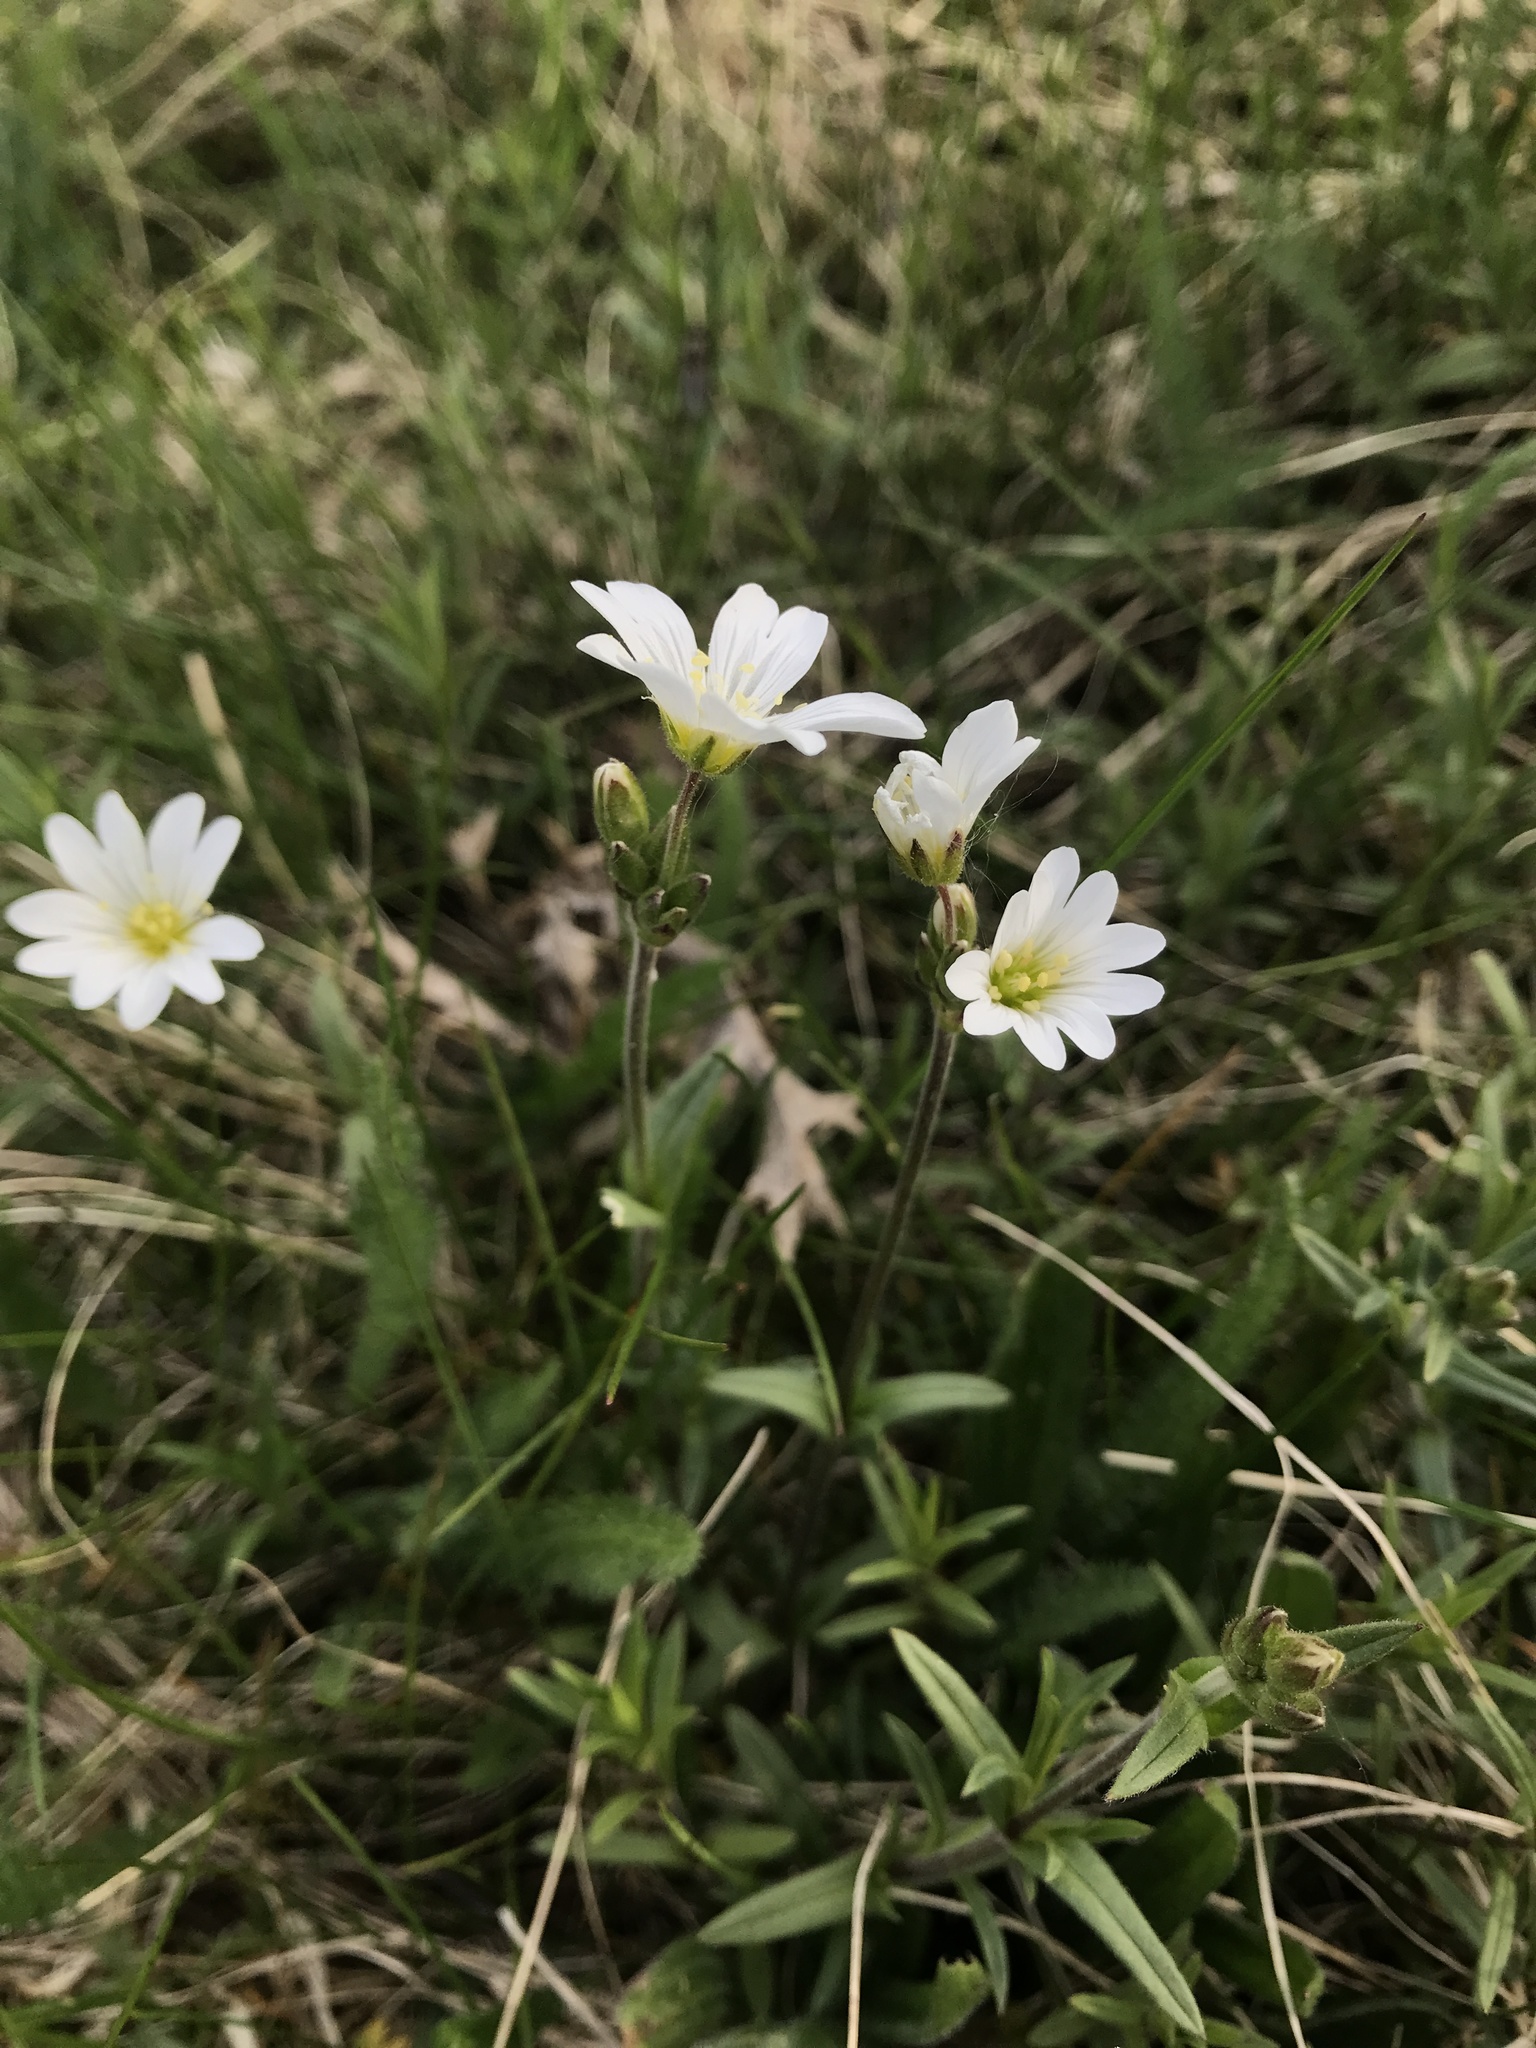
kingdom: Plantae
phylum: Tracheophyta
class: Magnoliopsida
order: Caryophyllales
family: Caryophyllaceae
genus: Cerastium
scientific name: Cerastium arvense
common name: Field mouse-ear
